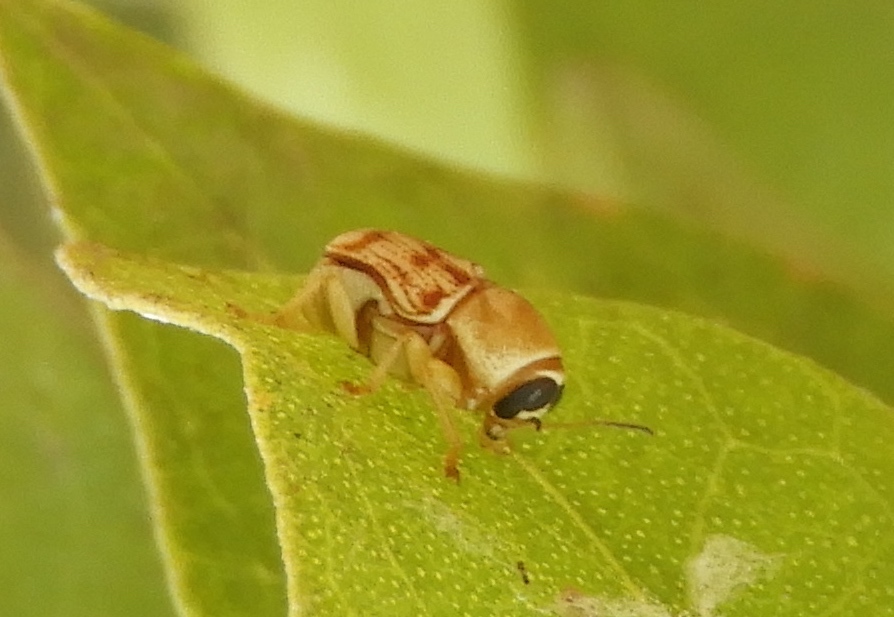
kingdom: Animalia
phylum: Arthropoda
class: Insecta
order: Coleoptera
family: Chrysomelidae
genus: Griburius
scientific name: Griburius puncturatus
